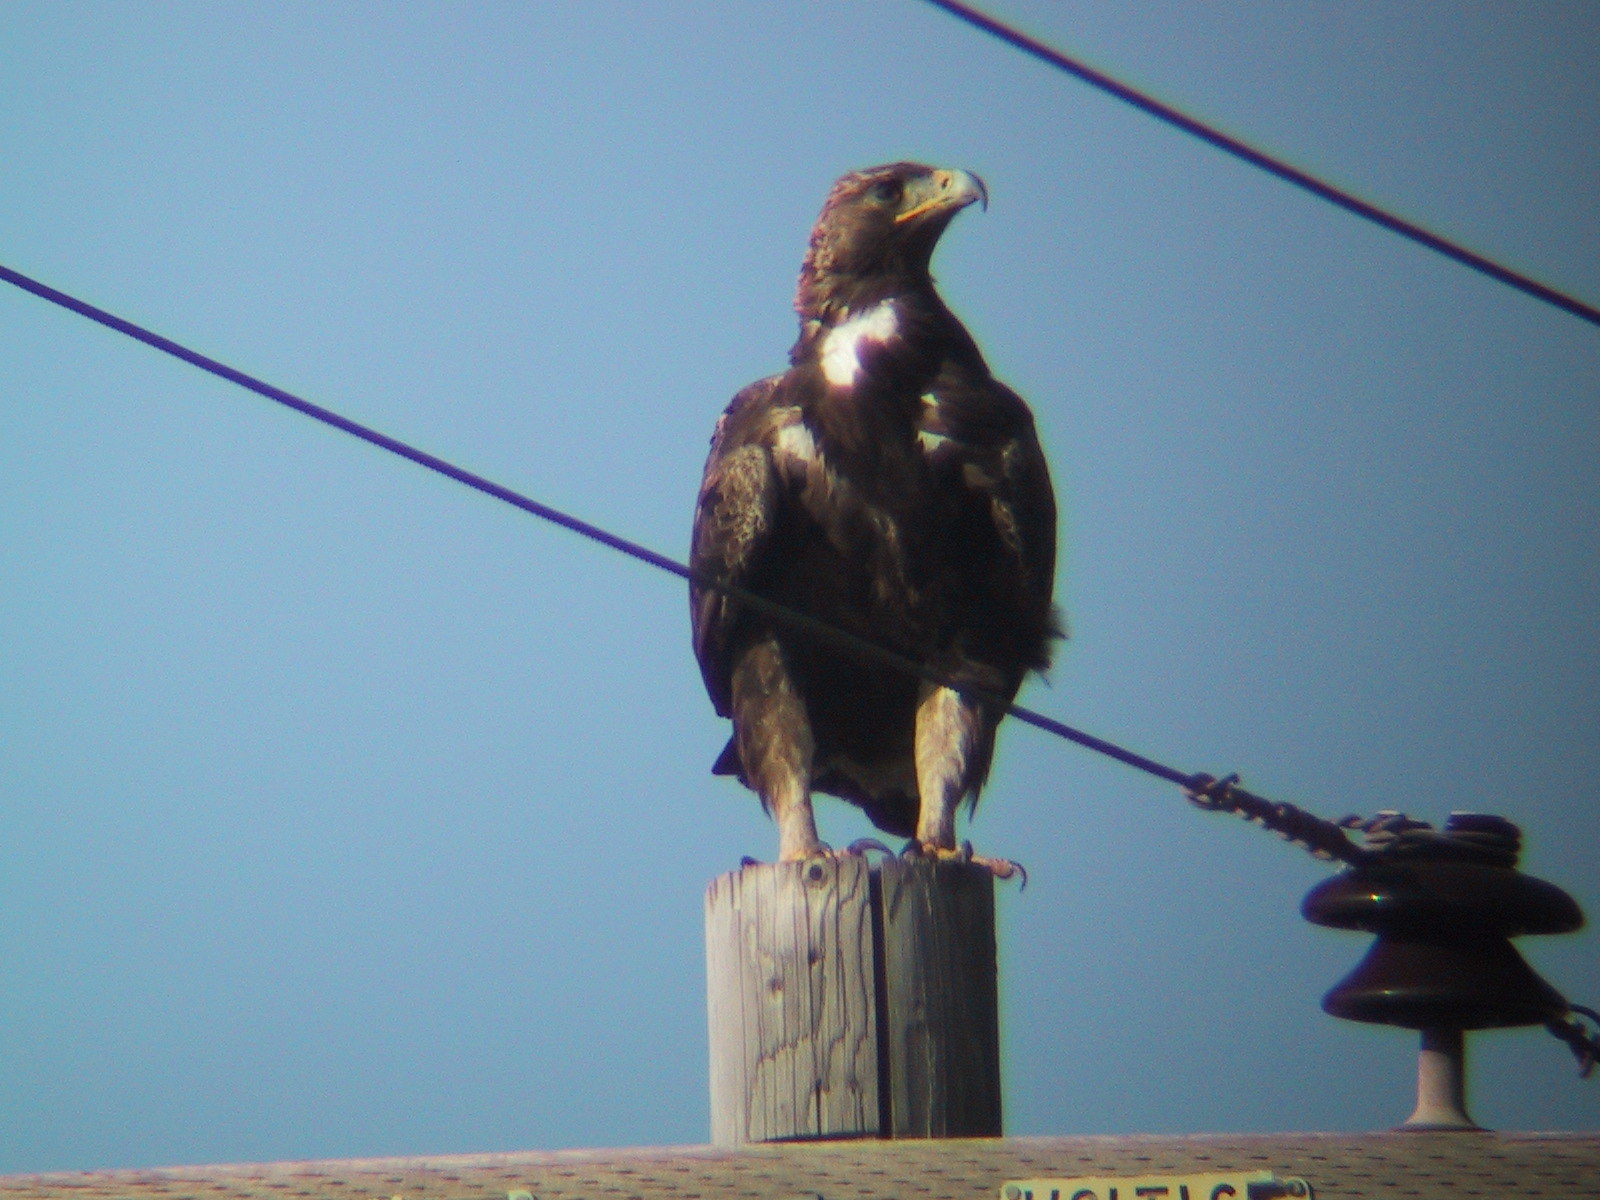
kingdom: Animalia
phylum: Chordata
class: Aves
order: Accipitriformes
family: Accipitridae
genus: Aquila
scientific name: Aquila chrysaetos
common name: Golden eagle
